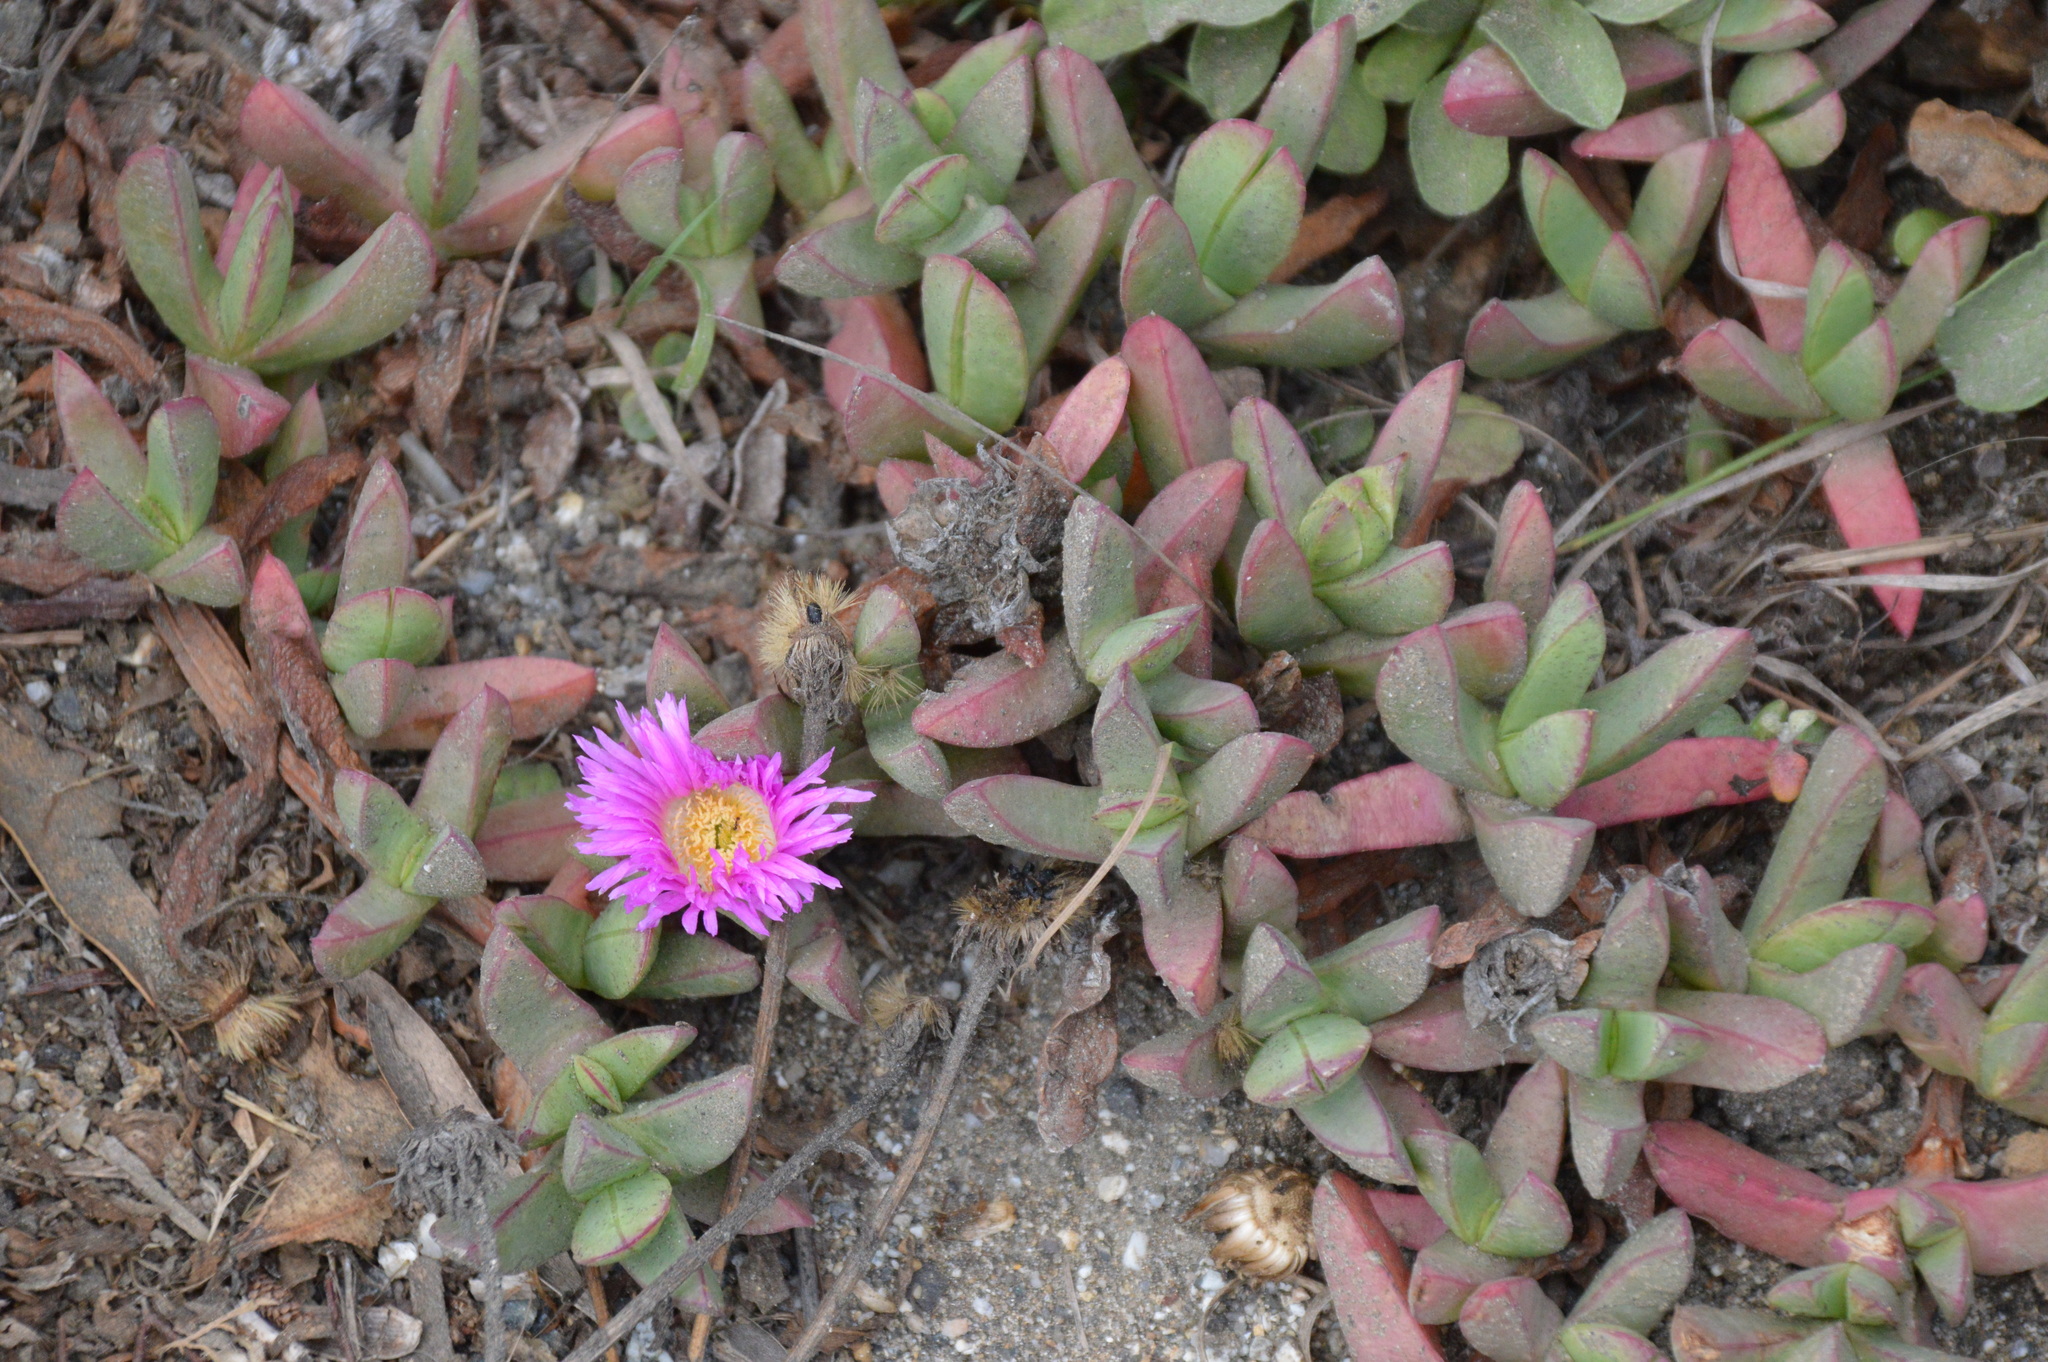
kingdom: Plantae
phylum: Tracheophyta
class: Magnoliopsida
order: Caryophyllales
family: Aizoaceae
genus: Carpobrotus
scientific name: Carpobrotus chilensis
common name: Sea fig
